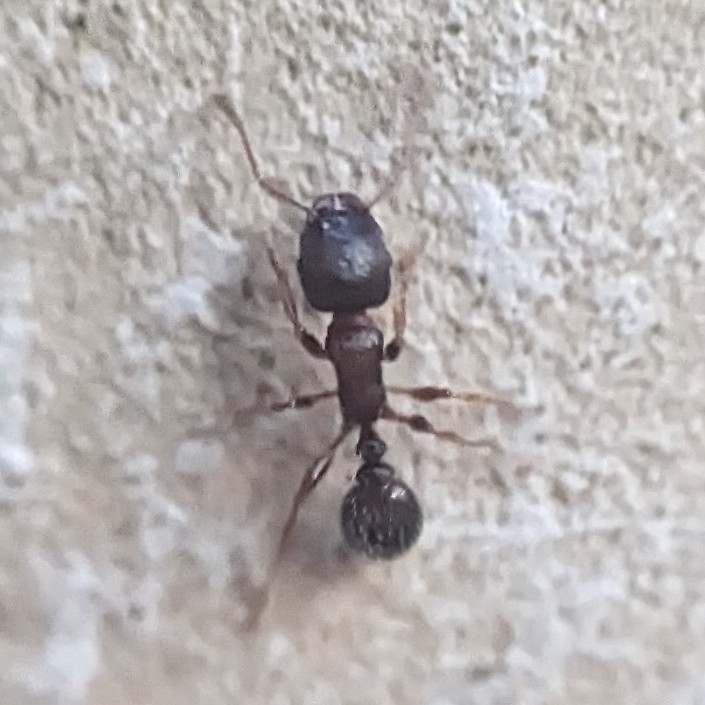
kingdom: Animalia
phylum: Arthropoda
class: Insecta
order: Hymenoptera
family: Formicidae
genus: Tetramorium
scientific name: Tetramorium immigrans
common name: Pavement ant
